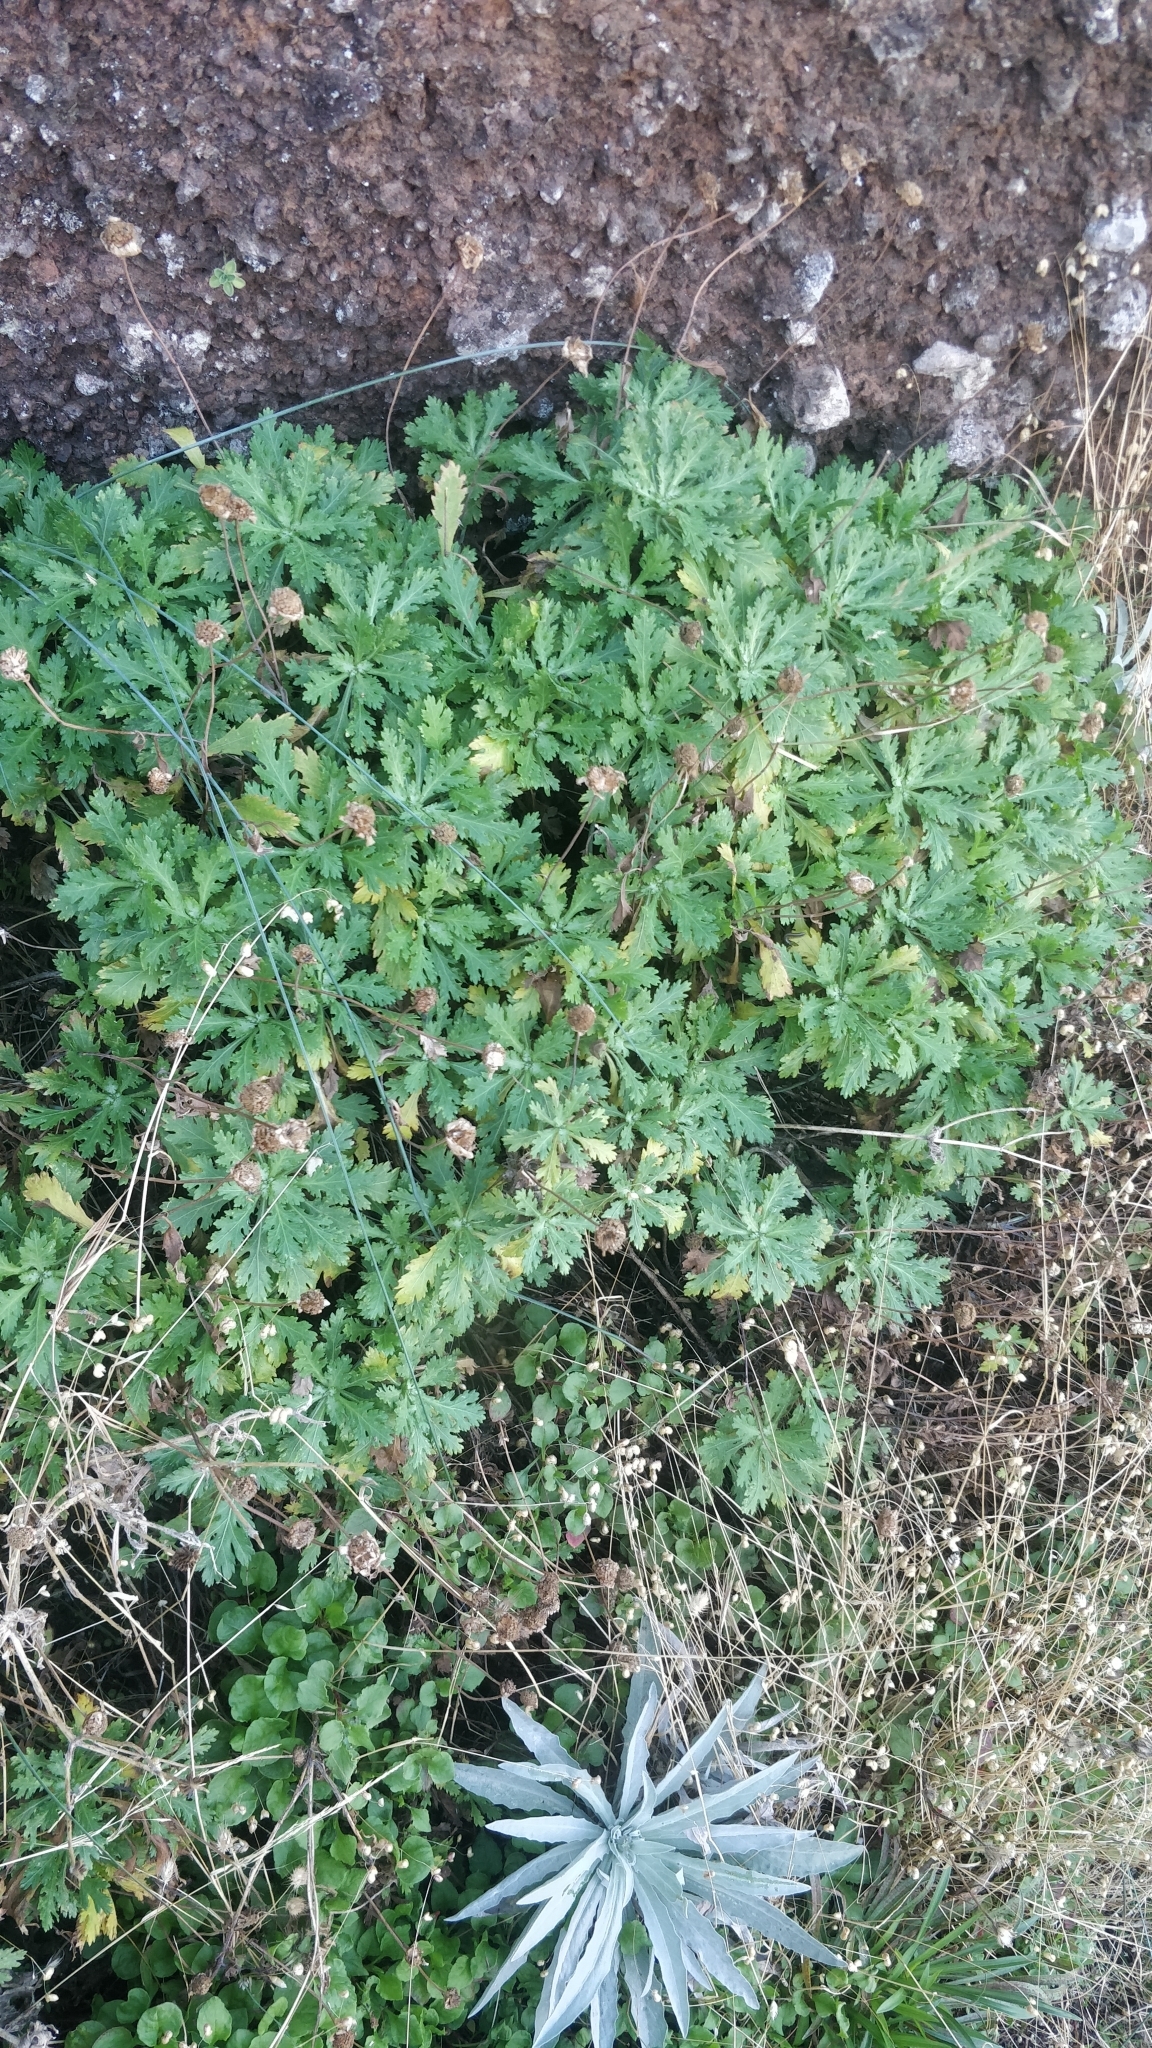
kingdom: Plantae
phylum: Tracheophyta
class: Magnoliopsida
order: Asterales
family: Asteraceae
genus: Argyranthemum
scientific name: Argyranthemum pinnatifidum
